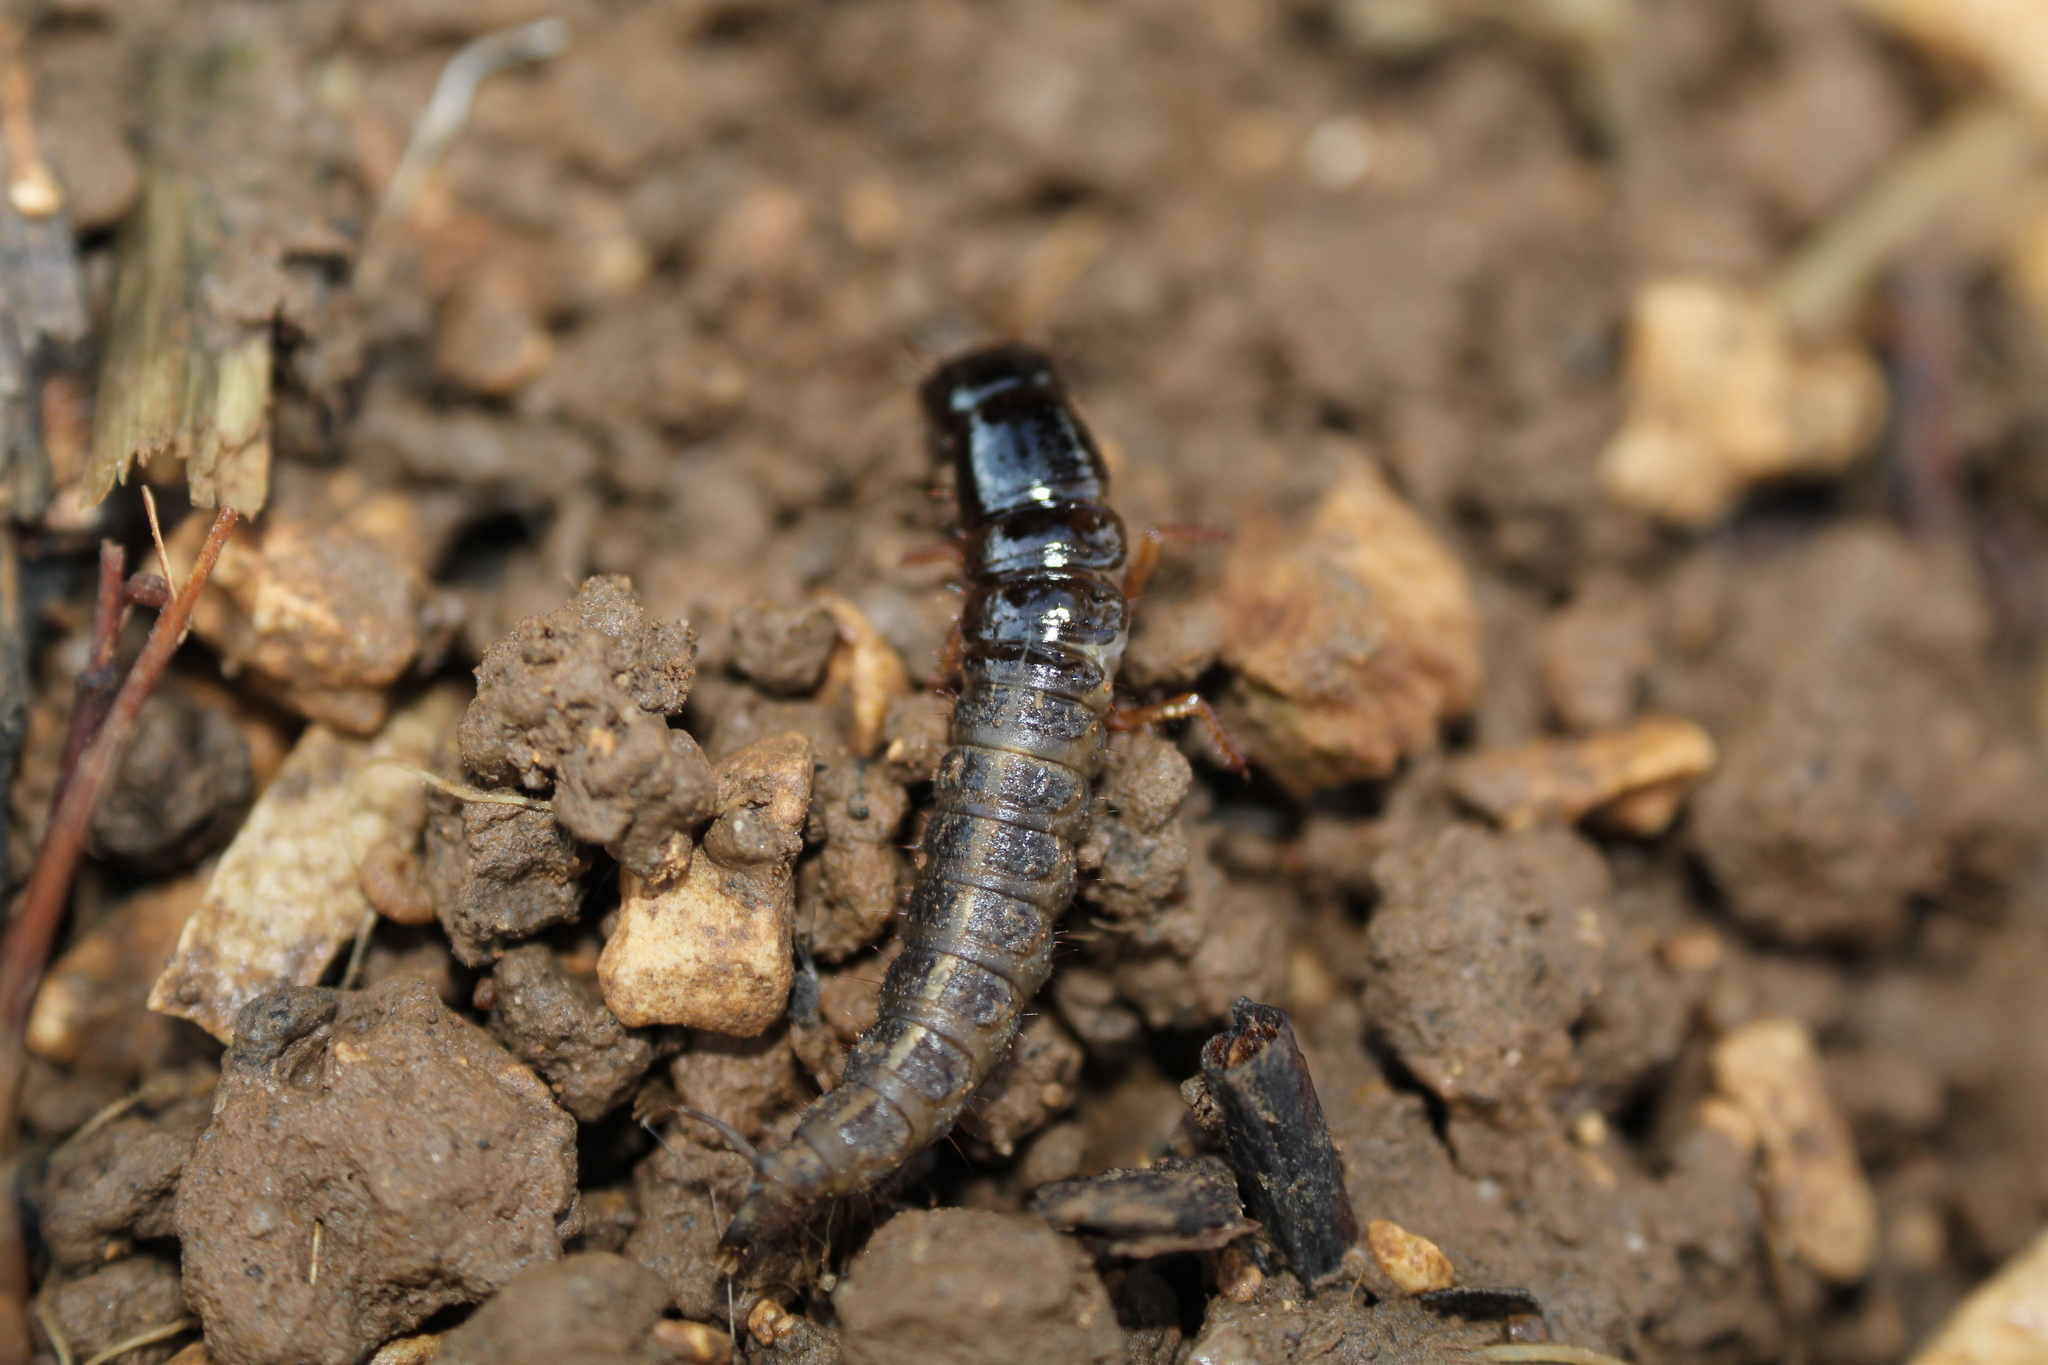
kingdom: Animalia
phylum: Arthropoda
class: Insecta
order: Coleoptera
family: Staphylinidae
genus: Ocypus
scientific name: Ocypus olens
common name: Devil's coach-horse
